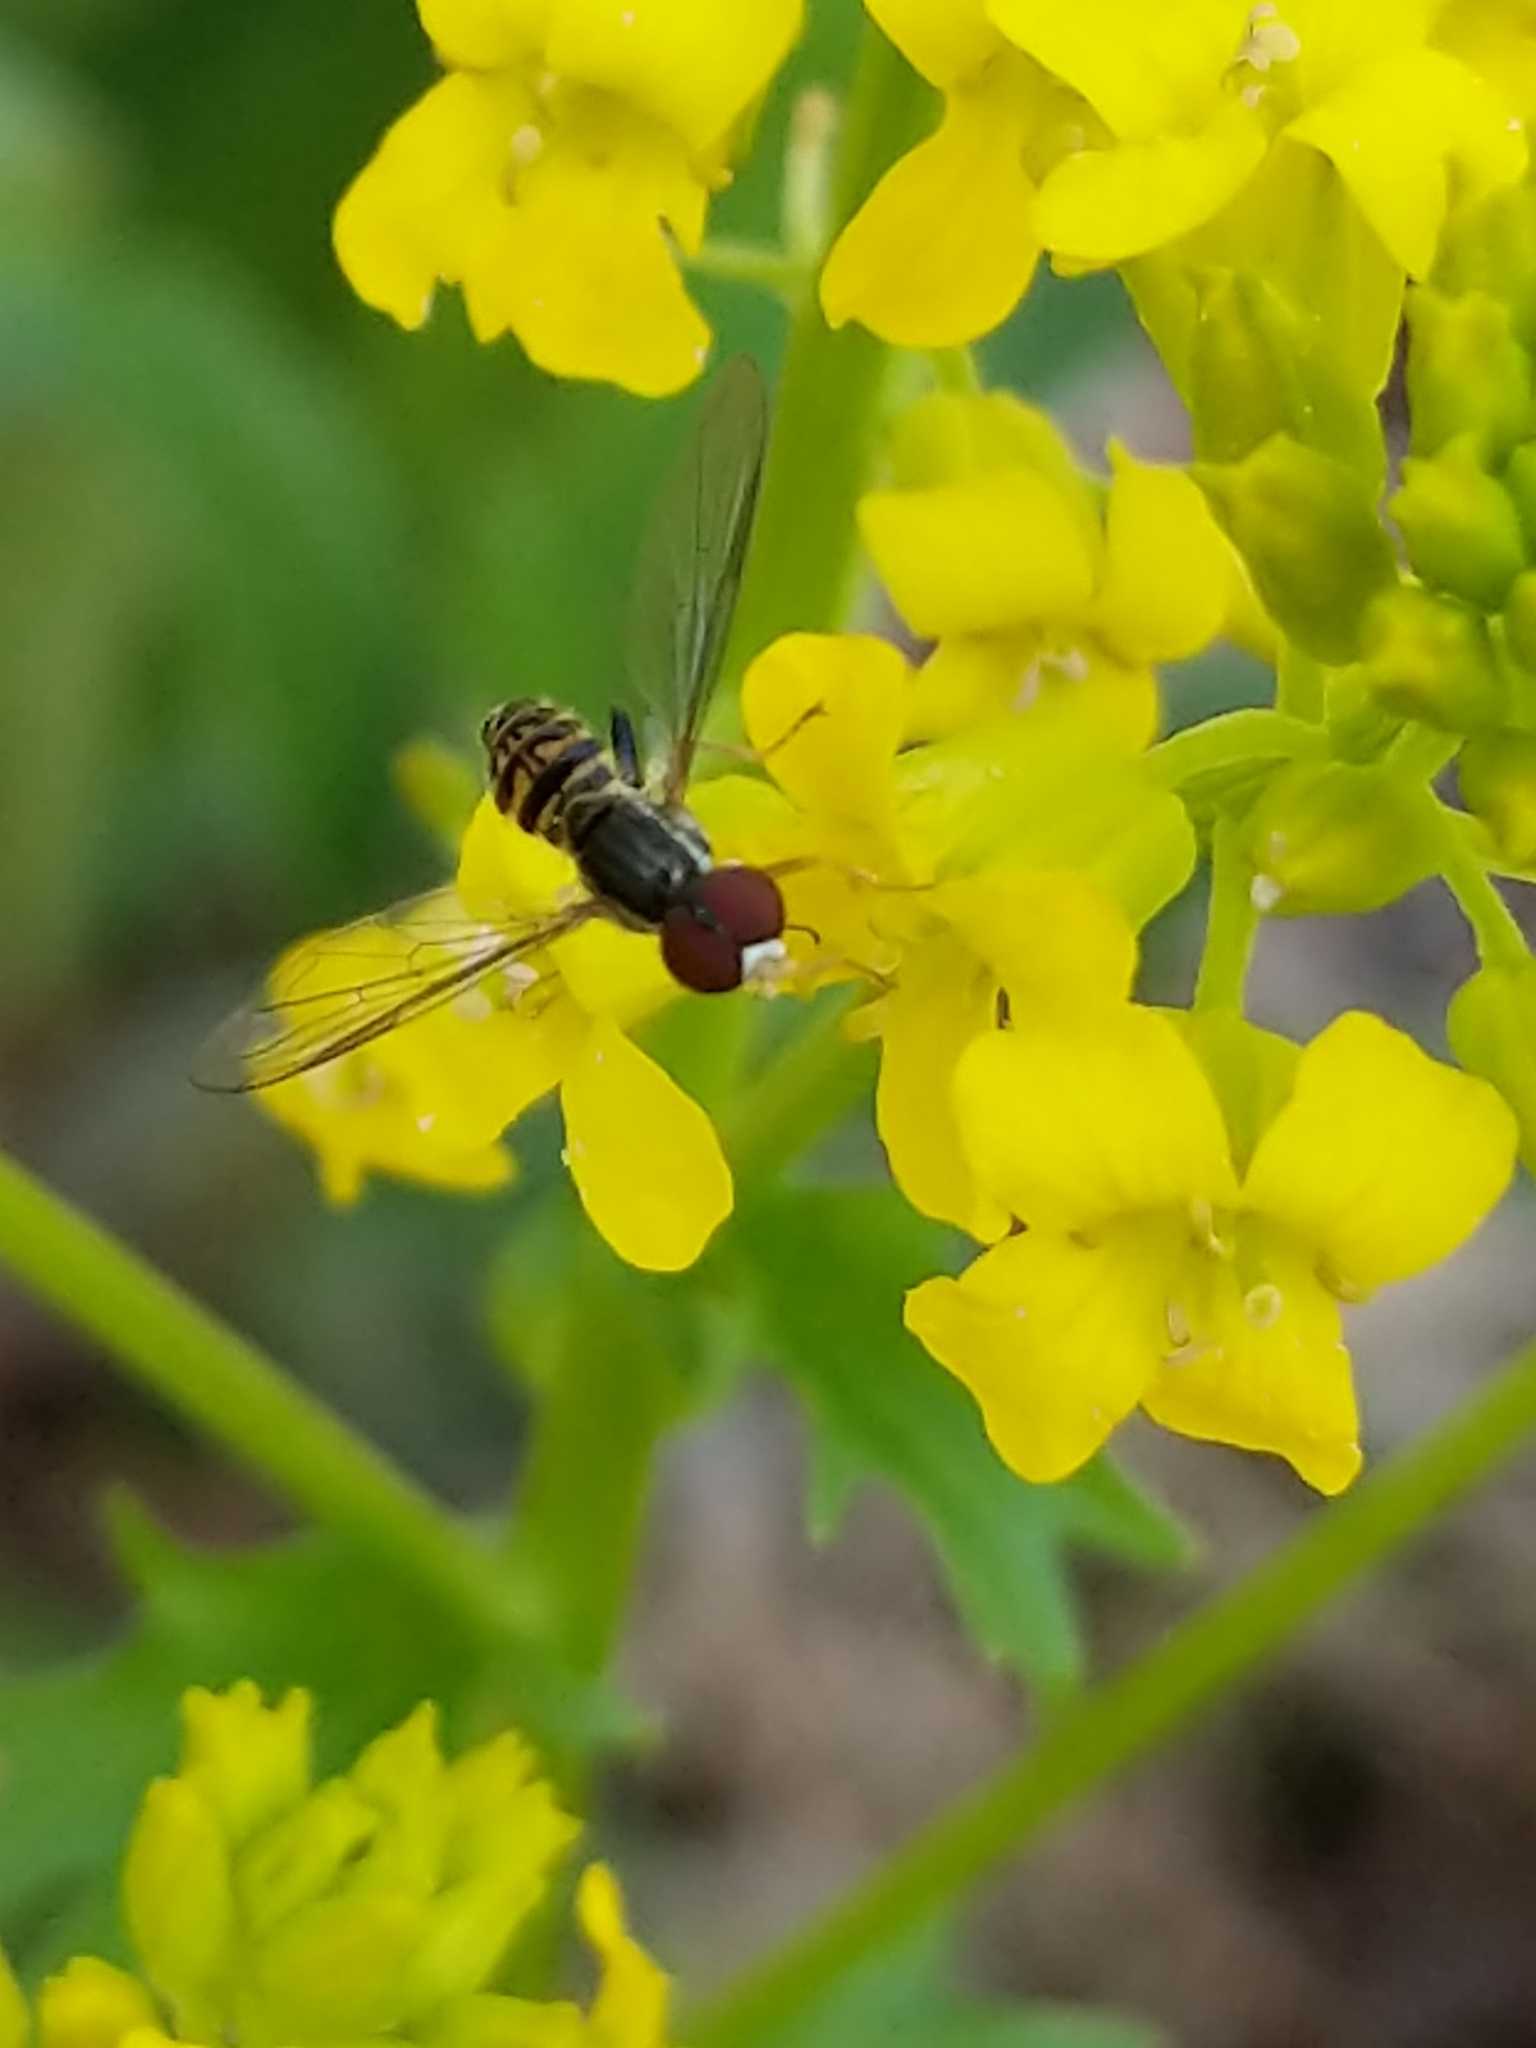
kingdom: Animalia
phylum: Arthropoda
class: Insecta
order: Diptera
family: Syrphidae
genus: Toxomerus
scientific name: Toxomerus geminatus
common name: Eastern calligrapher
